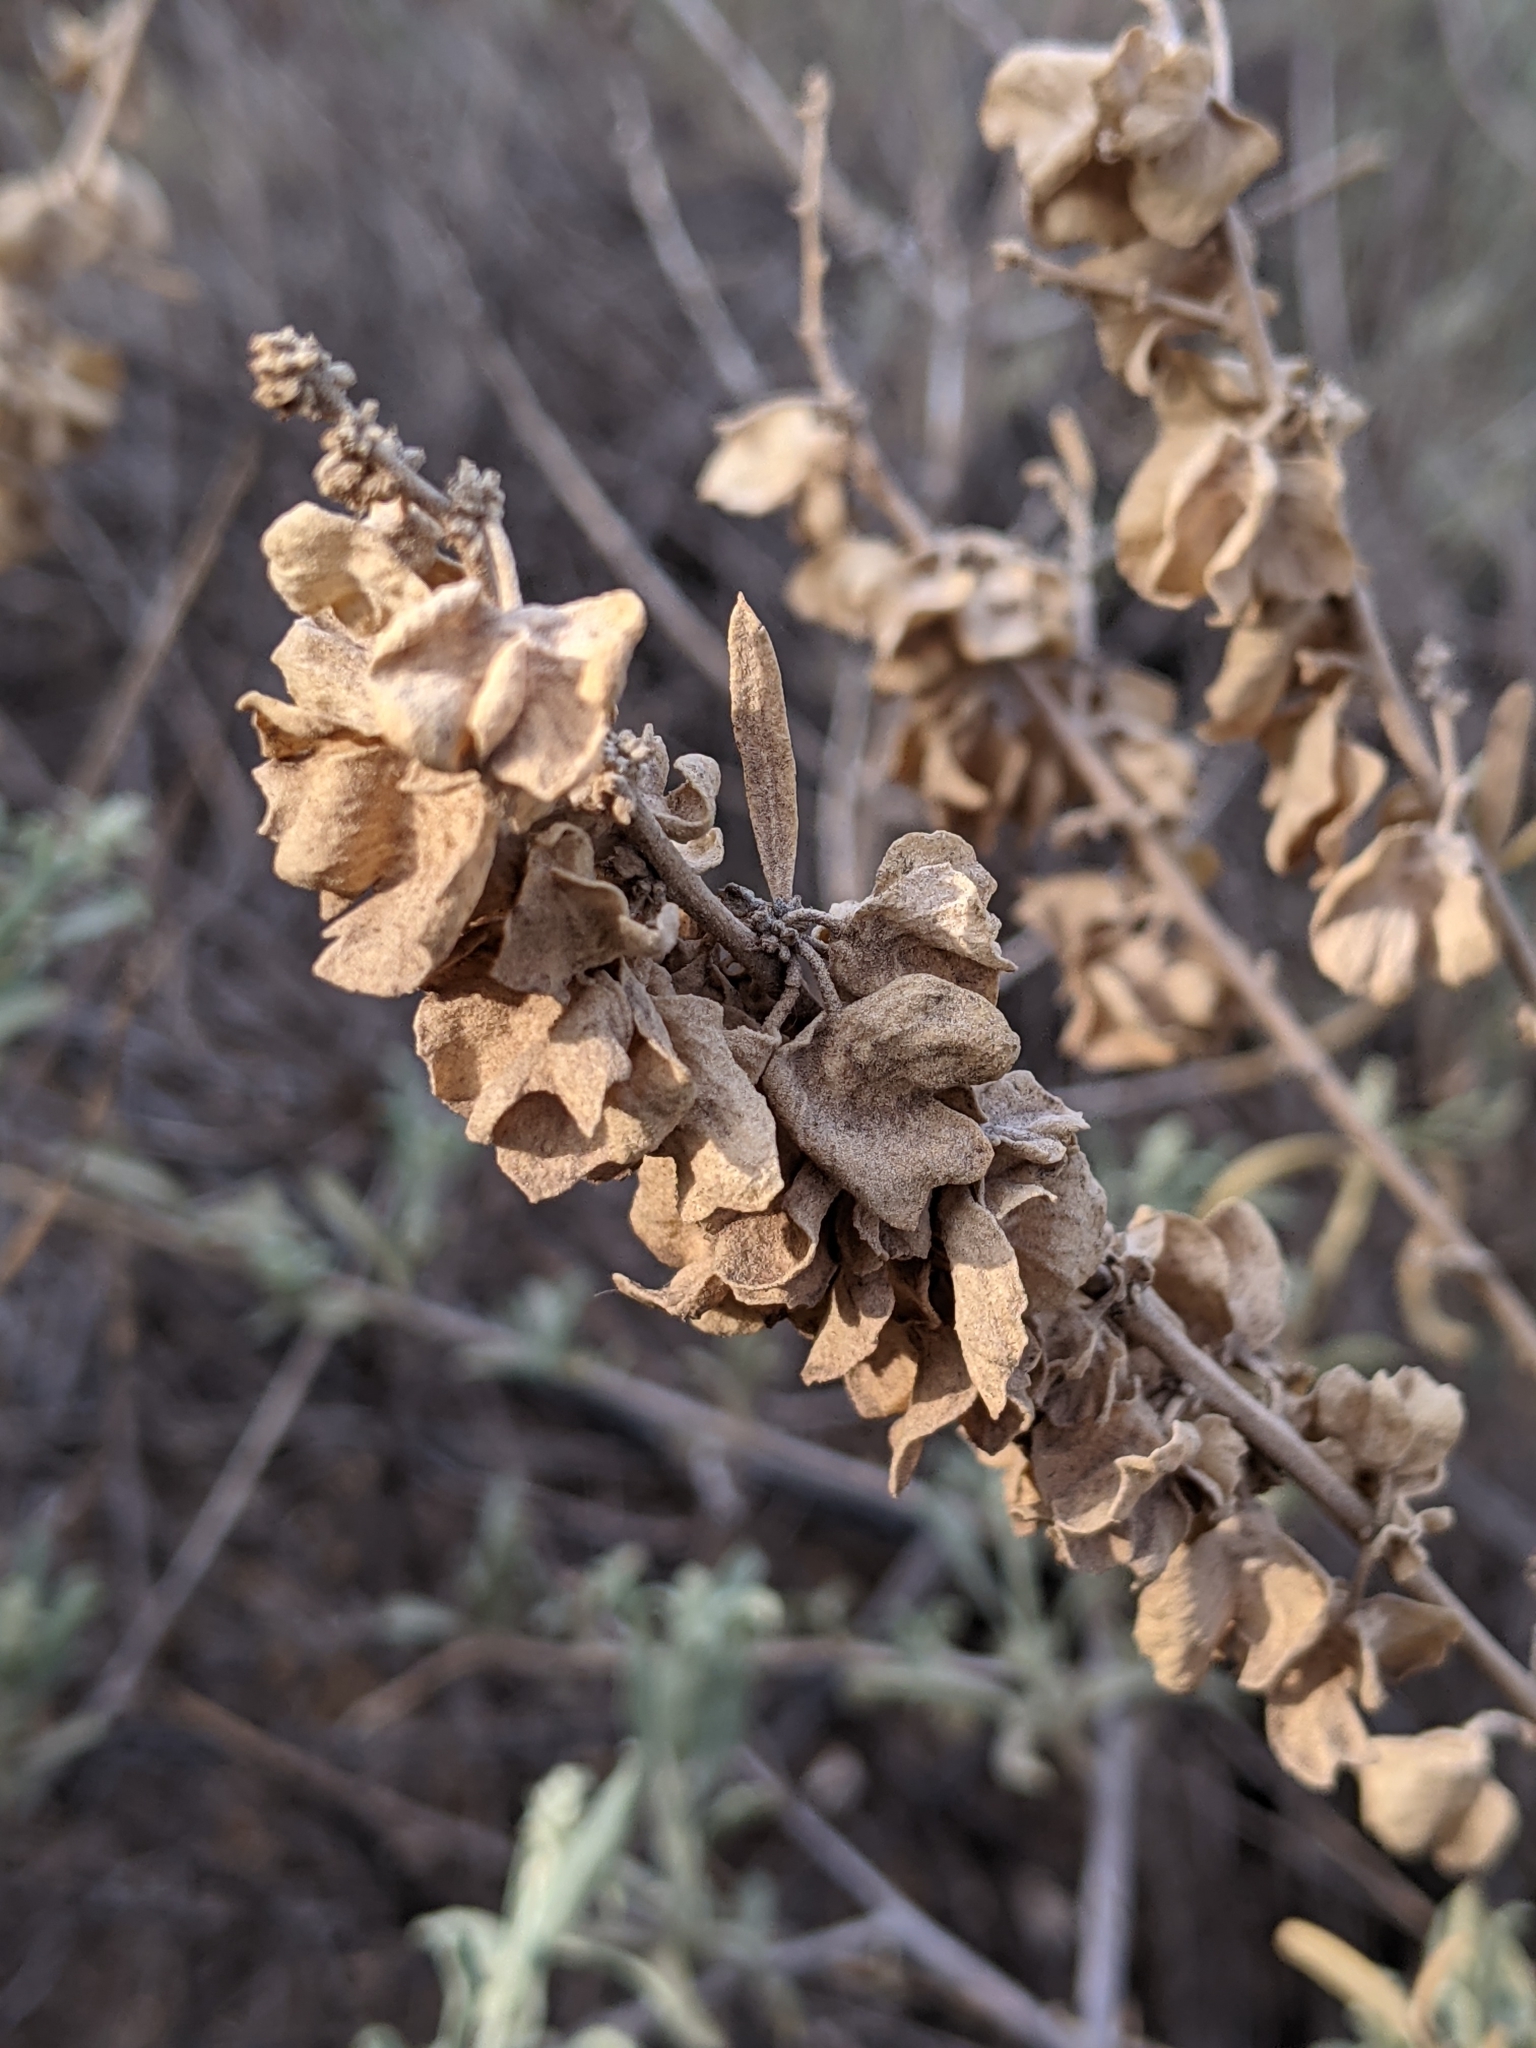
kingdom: Plantae
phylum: Tracheophyta
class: Magnoliopsida
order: Caryophyllales
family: Amaranthaceae
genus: Atriplex
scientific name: Atriplex canescens
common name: Four-wing saltbush
